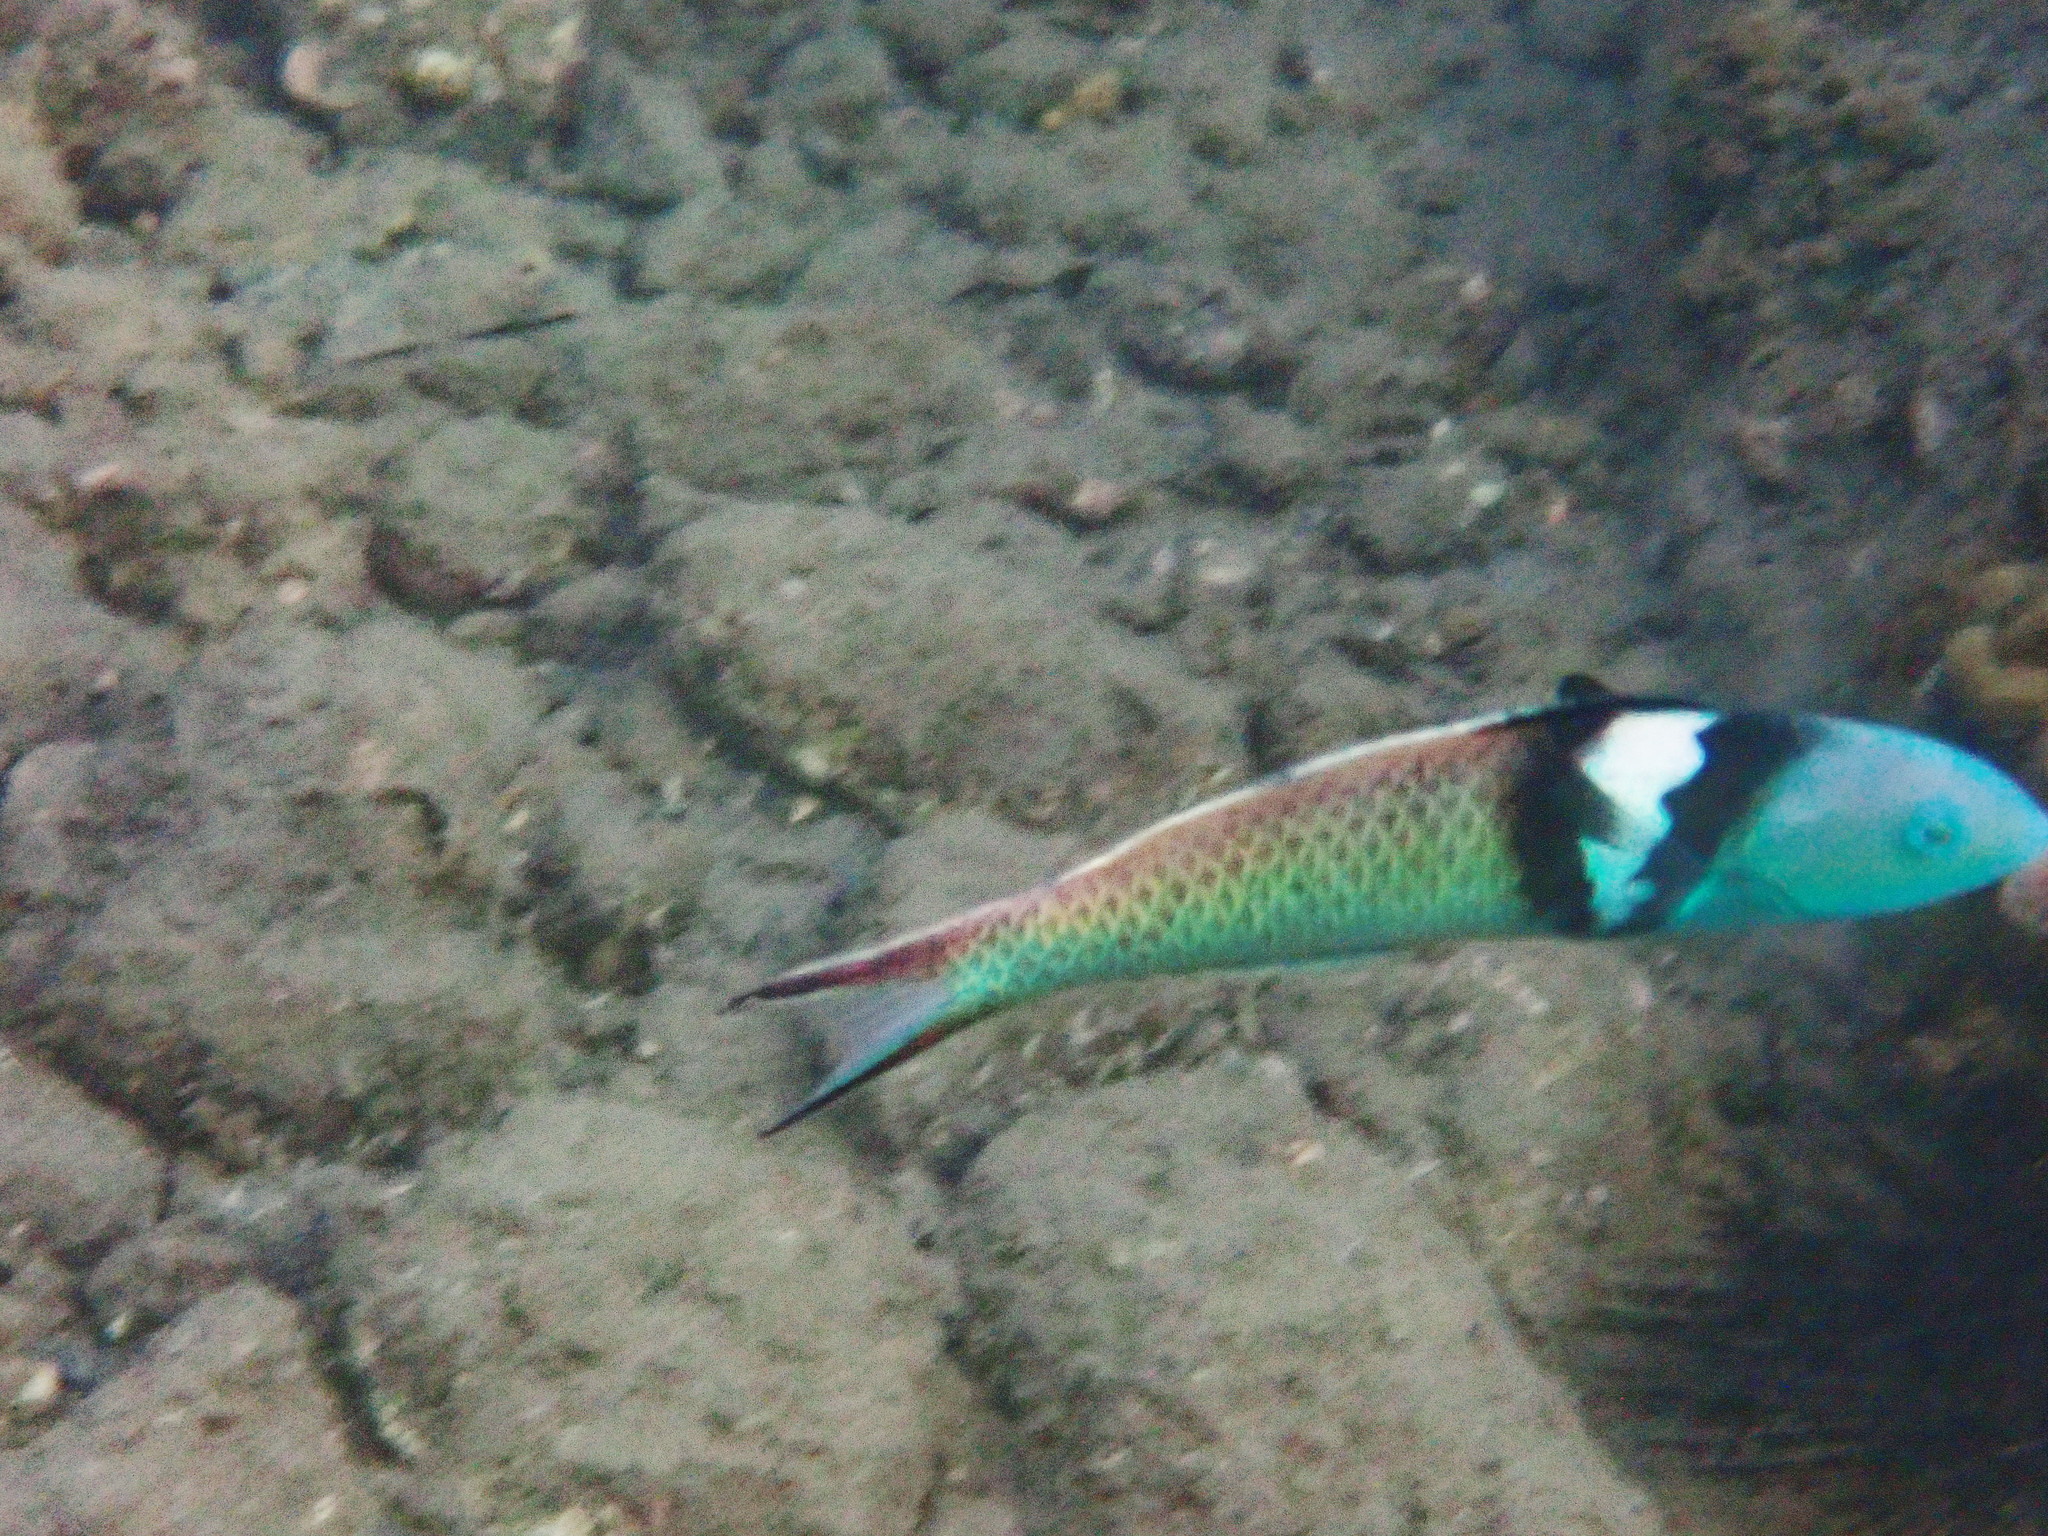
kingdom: Animalia
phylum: Chordata
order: Perciformes
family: Labridae
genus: Thalassoma
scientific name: Thalassoma bifasciatum
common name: Bluehead wrasse
